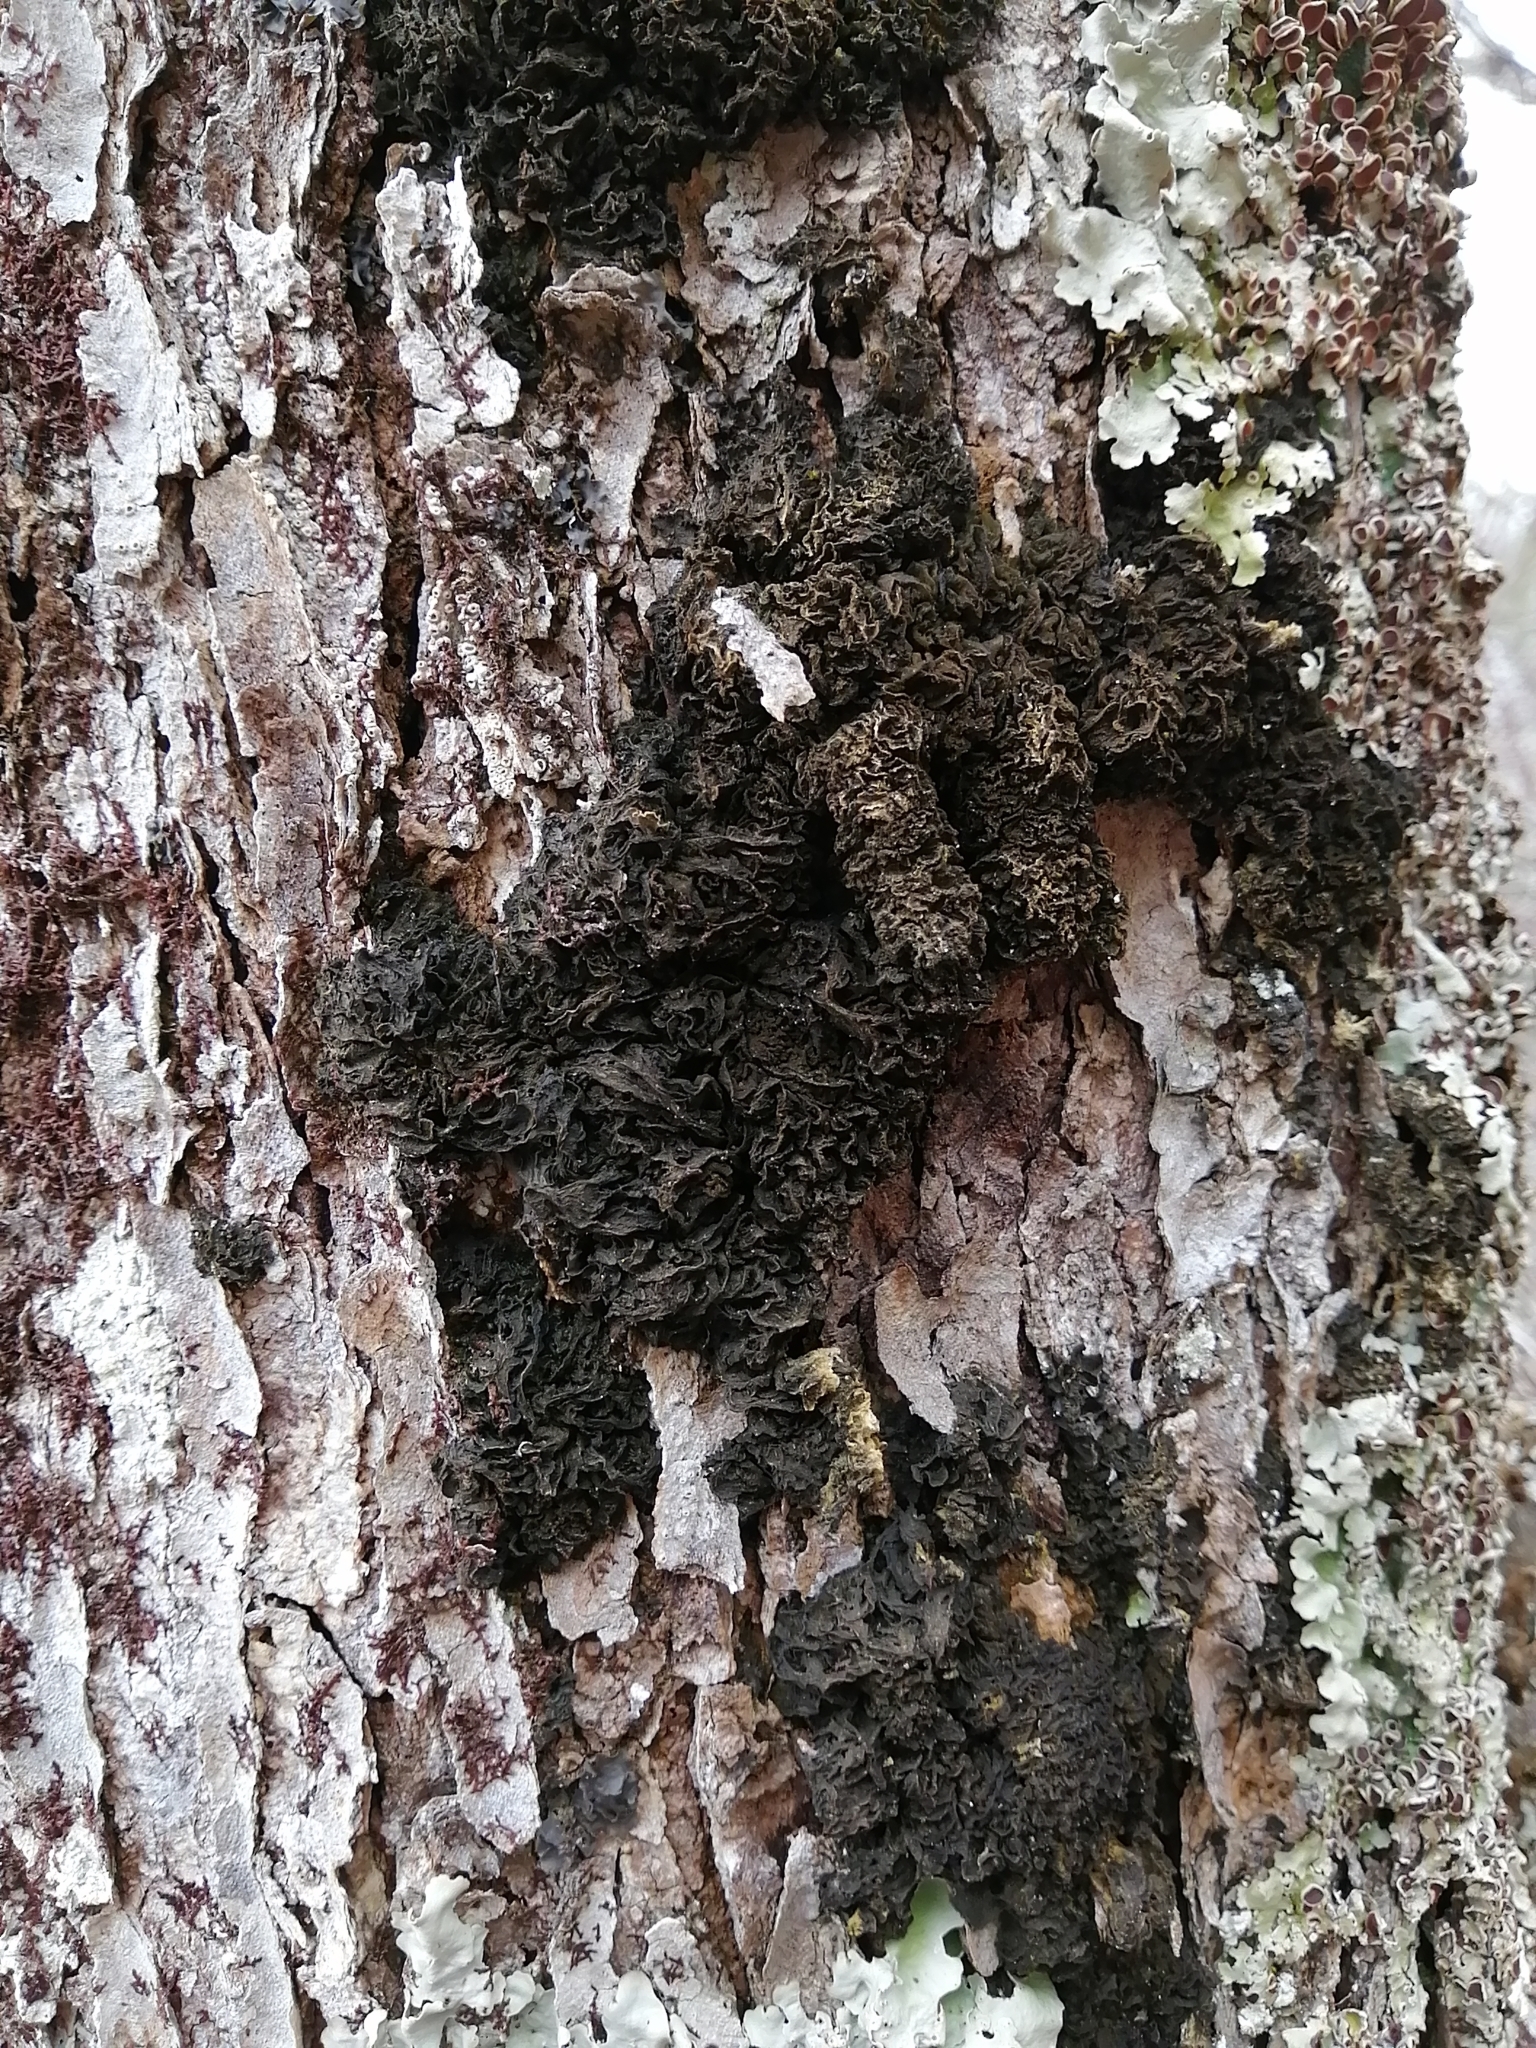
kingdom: Fungi
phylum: Ascomycota
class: Lecanoromycetes
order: Peltigerales
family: Collemataceae
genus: Leptogium
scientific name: Leptogium milligranum
